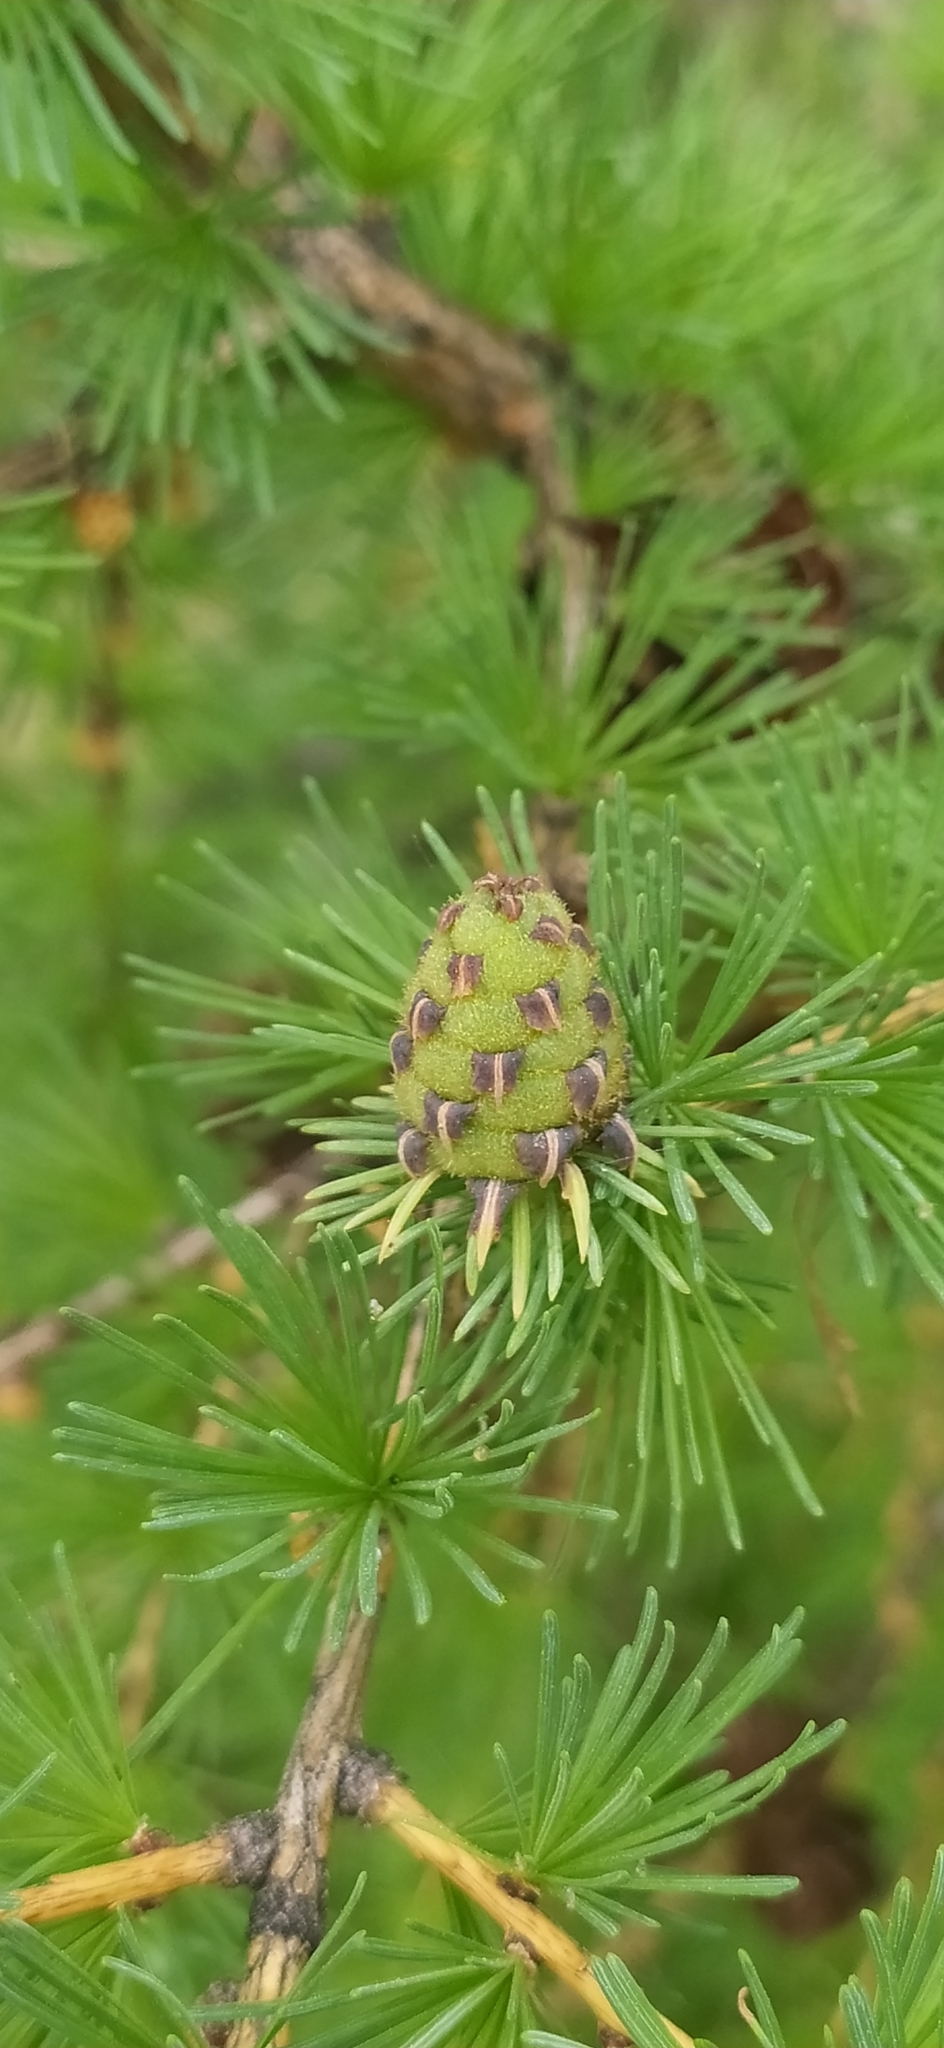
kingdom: Plantae
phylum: Tracheophyta
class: Pinopsida
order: Pinales
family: Pinaceae
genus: Larix
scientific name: Larix sibirica
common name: Siberian larch
